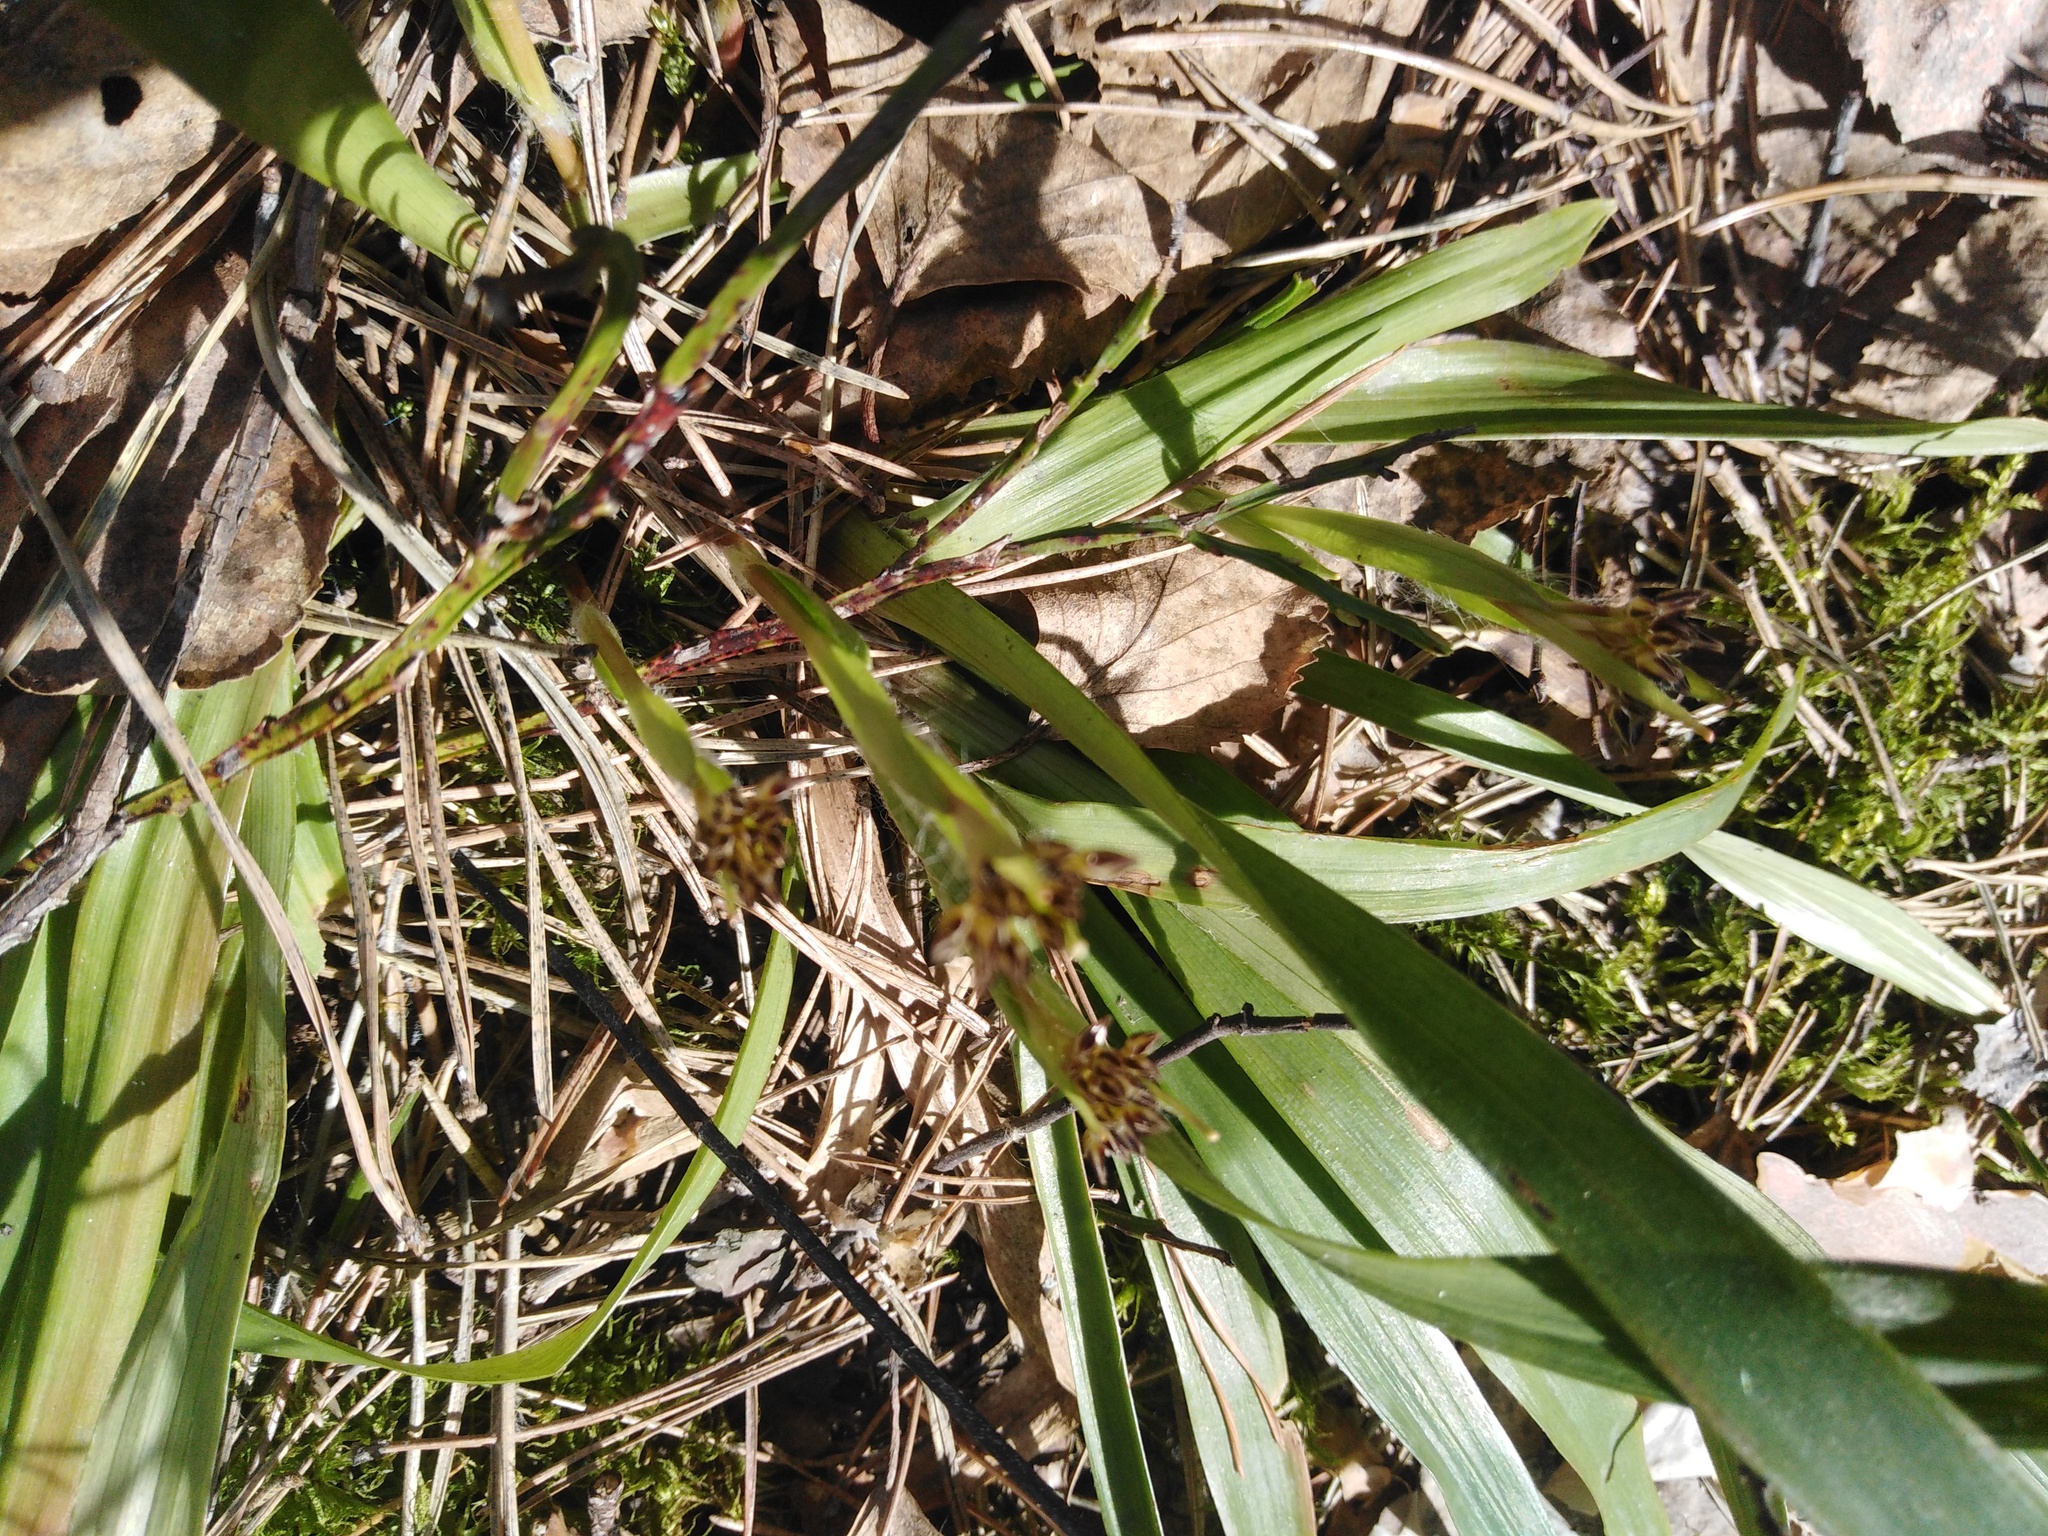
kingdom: Plantae
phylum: Tracheophyta
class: Liliopsida
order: Poales
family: Juncaceae
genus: Luzula
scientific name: Luzula pilosa
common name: Hairy wood-rush
